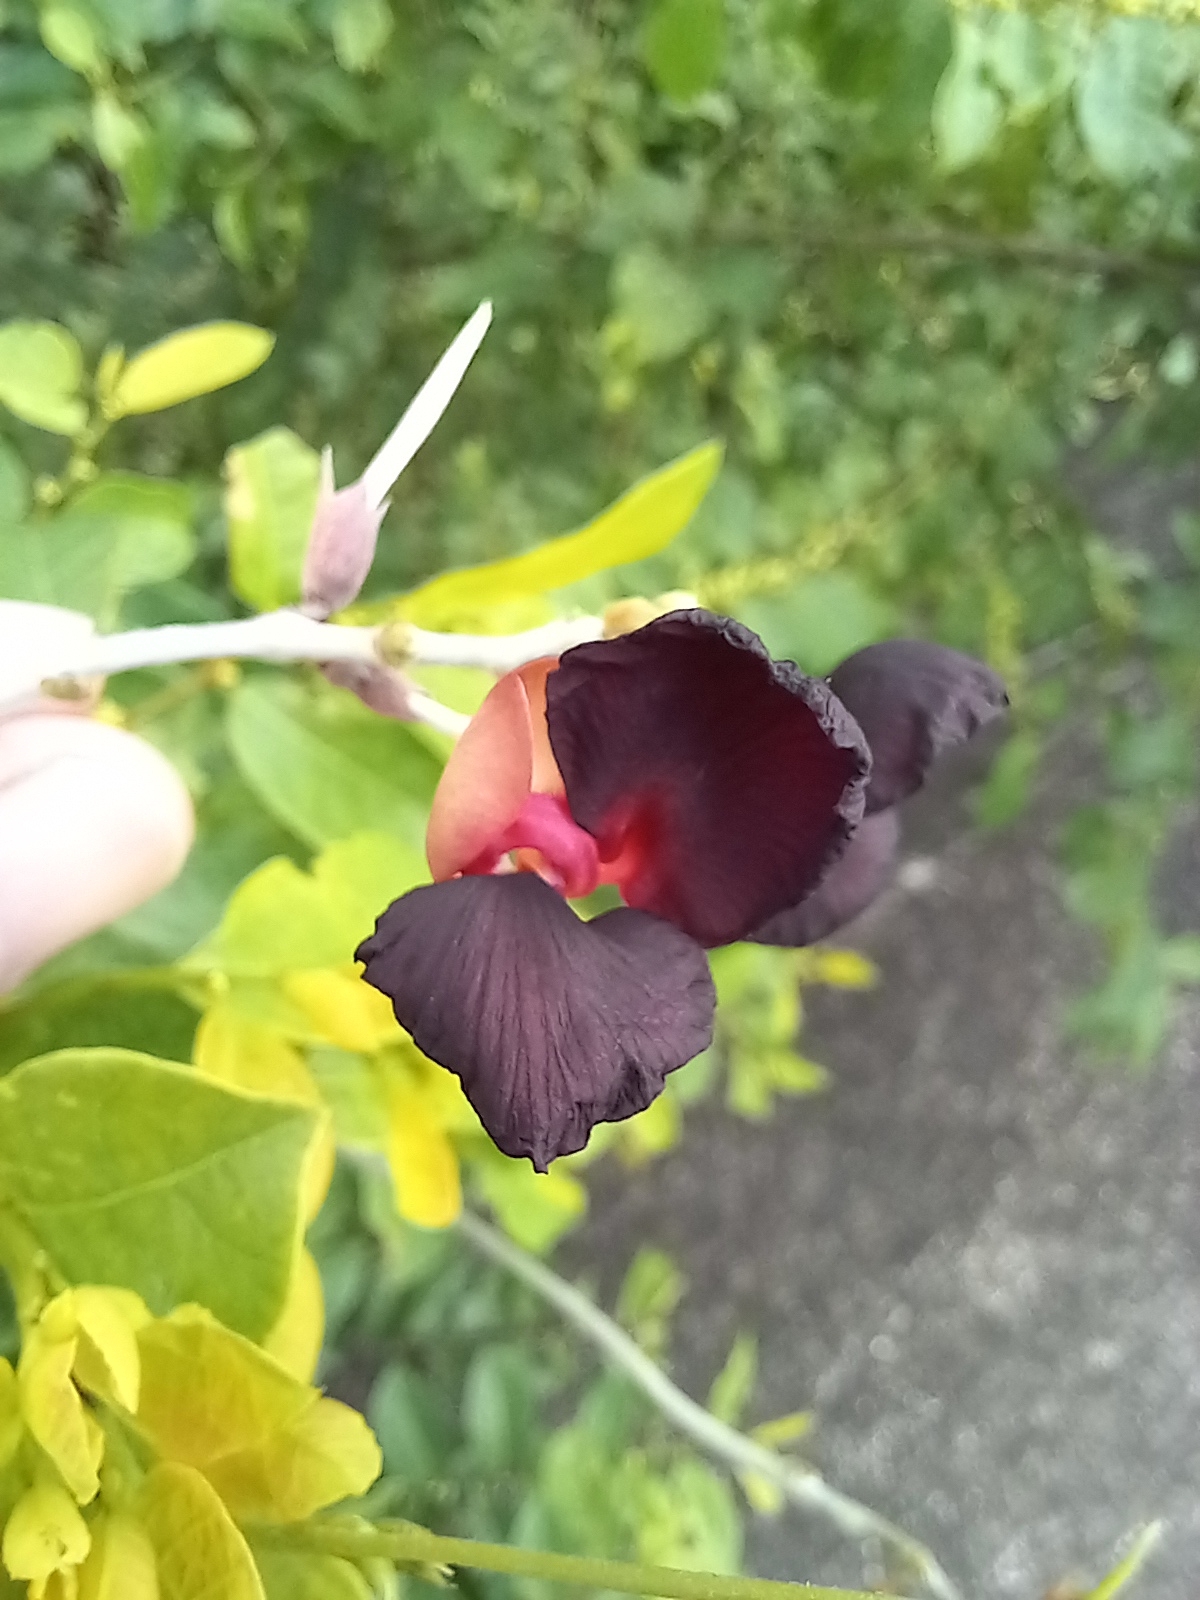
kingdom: Plantae
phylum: Tracheophyta
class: Magnoliopsida
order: Fabales
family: Fabaceae
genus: Macroptilium
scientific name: Macroptilium atropurpureum
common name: Purple bushbean
